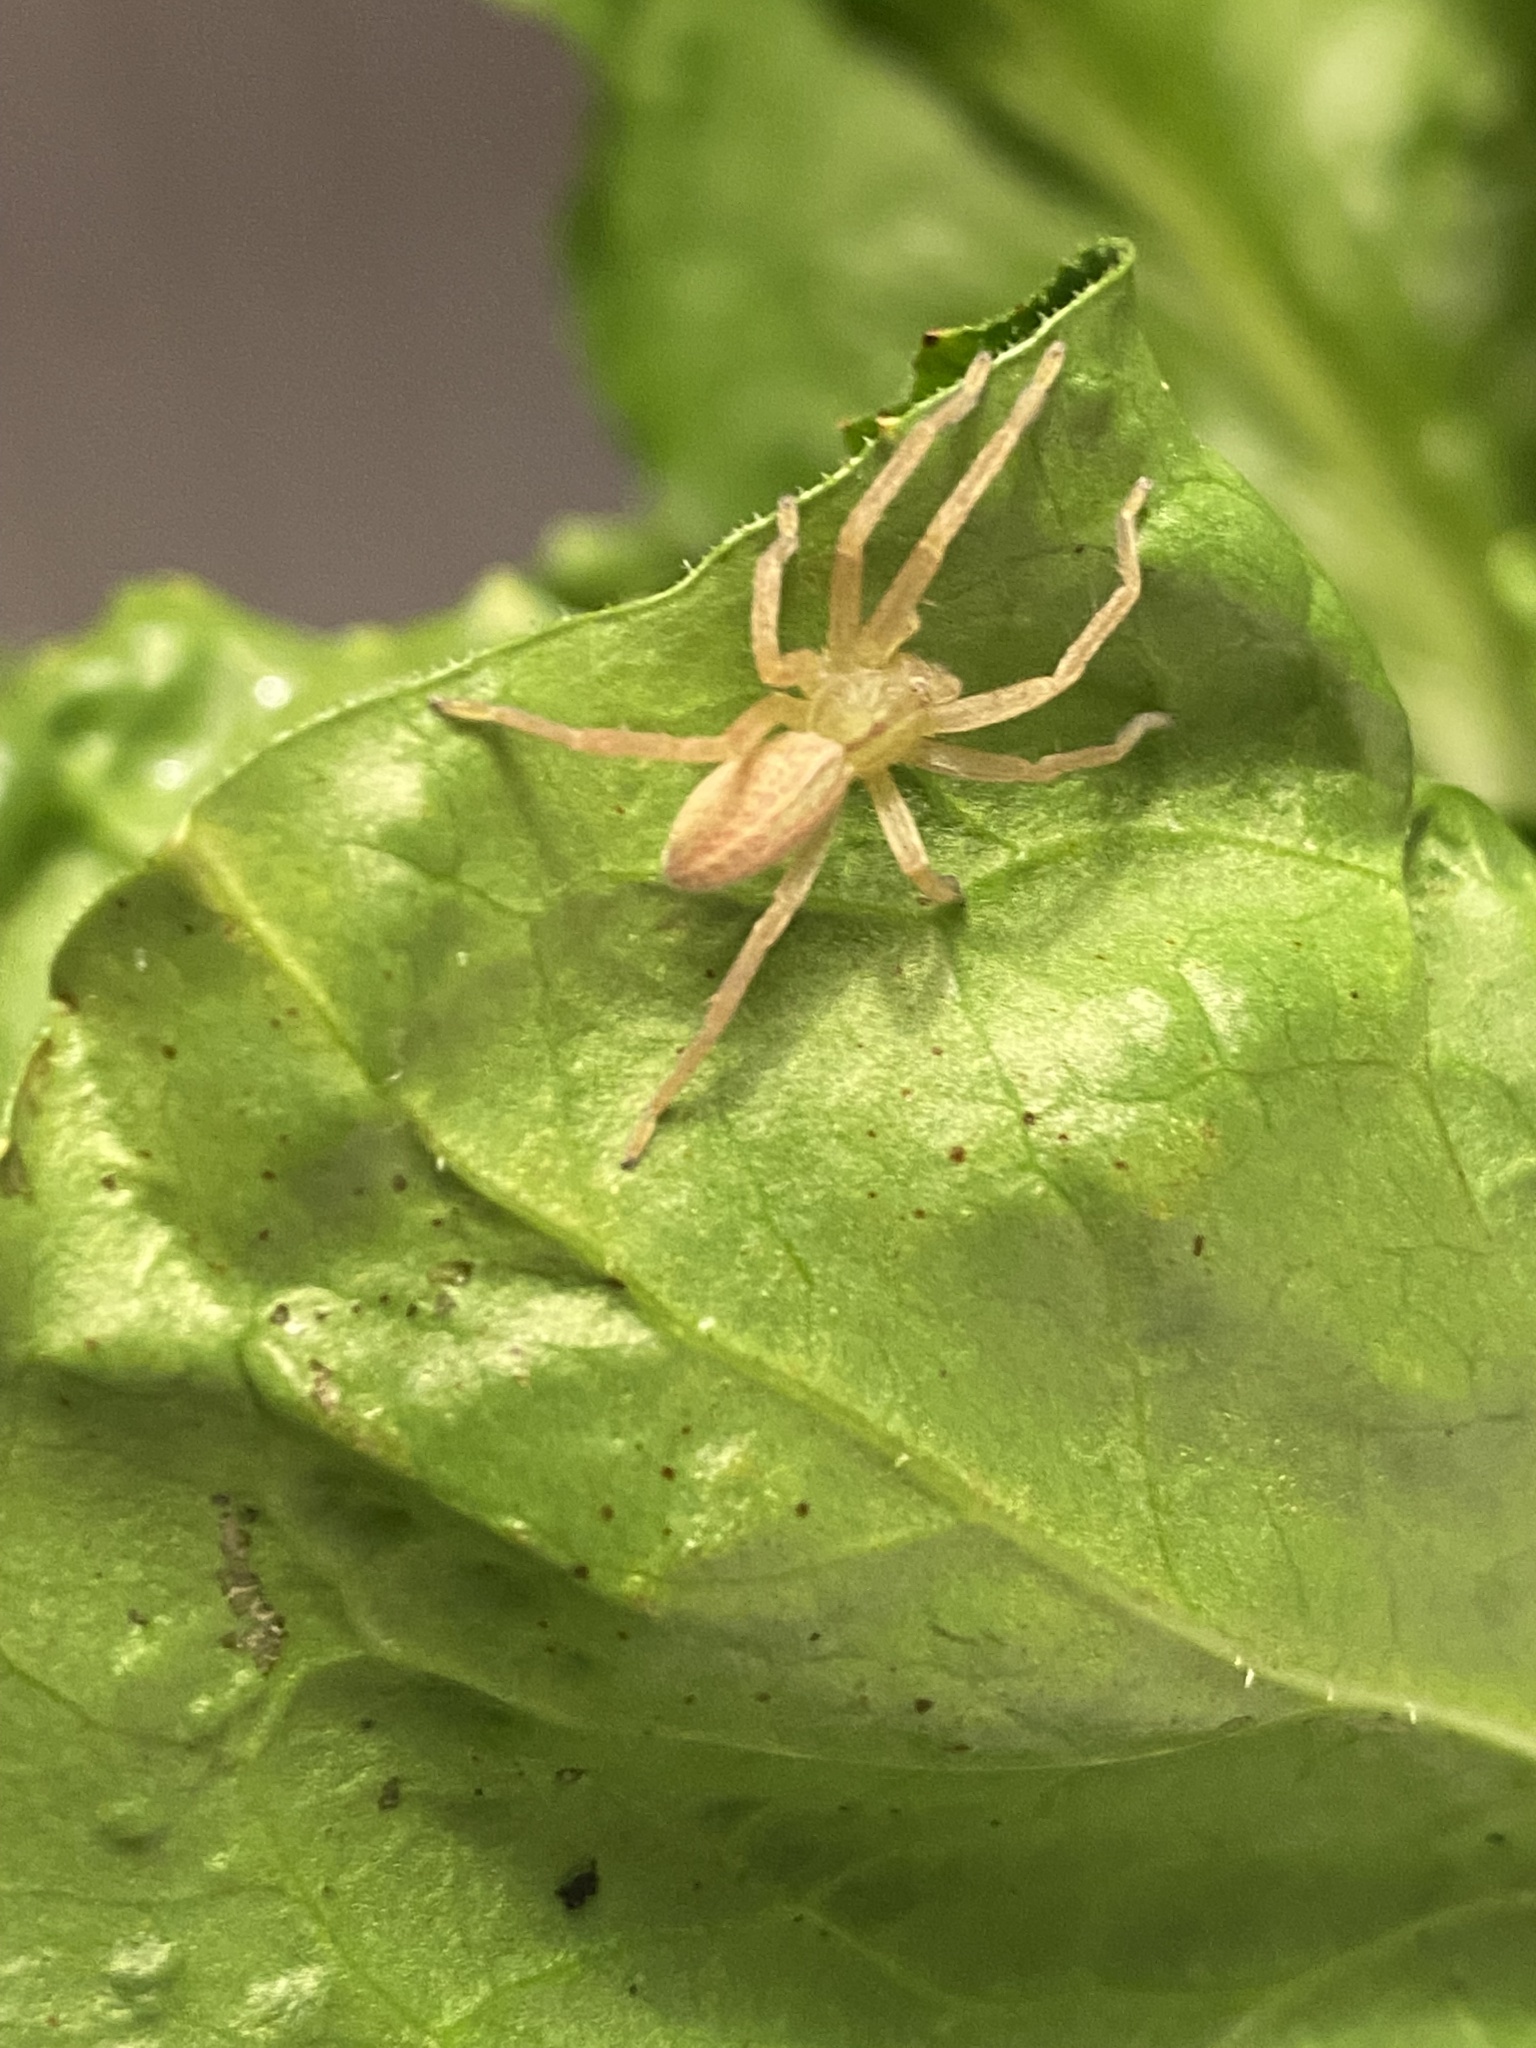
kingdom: Animalia
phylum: Arthropoda
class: Arachnida
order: Araneae
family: Sparassidae
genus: Micrommata
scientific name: Micrommata virescens
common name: Green spider
